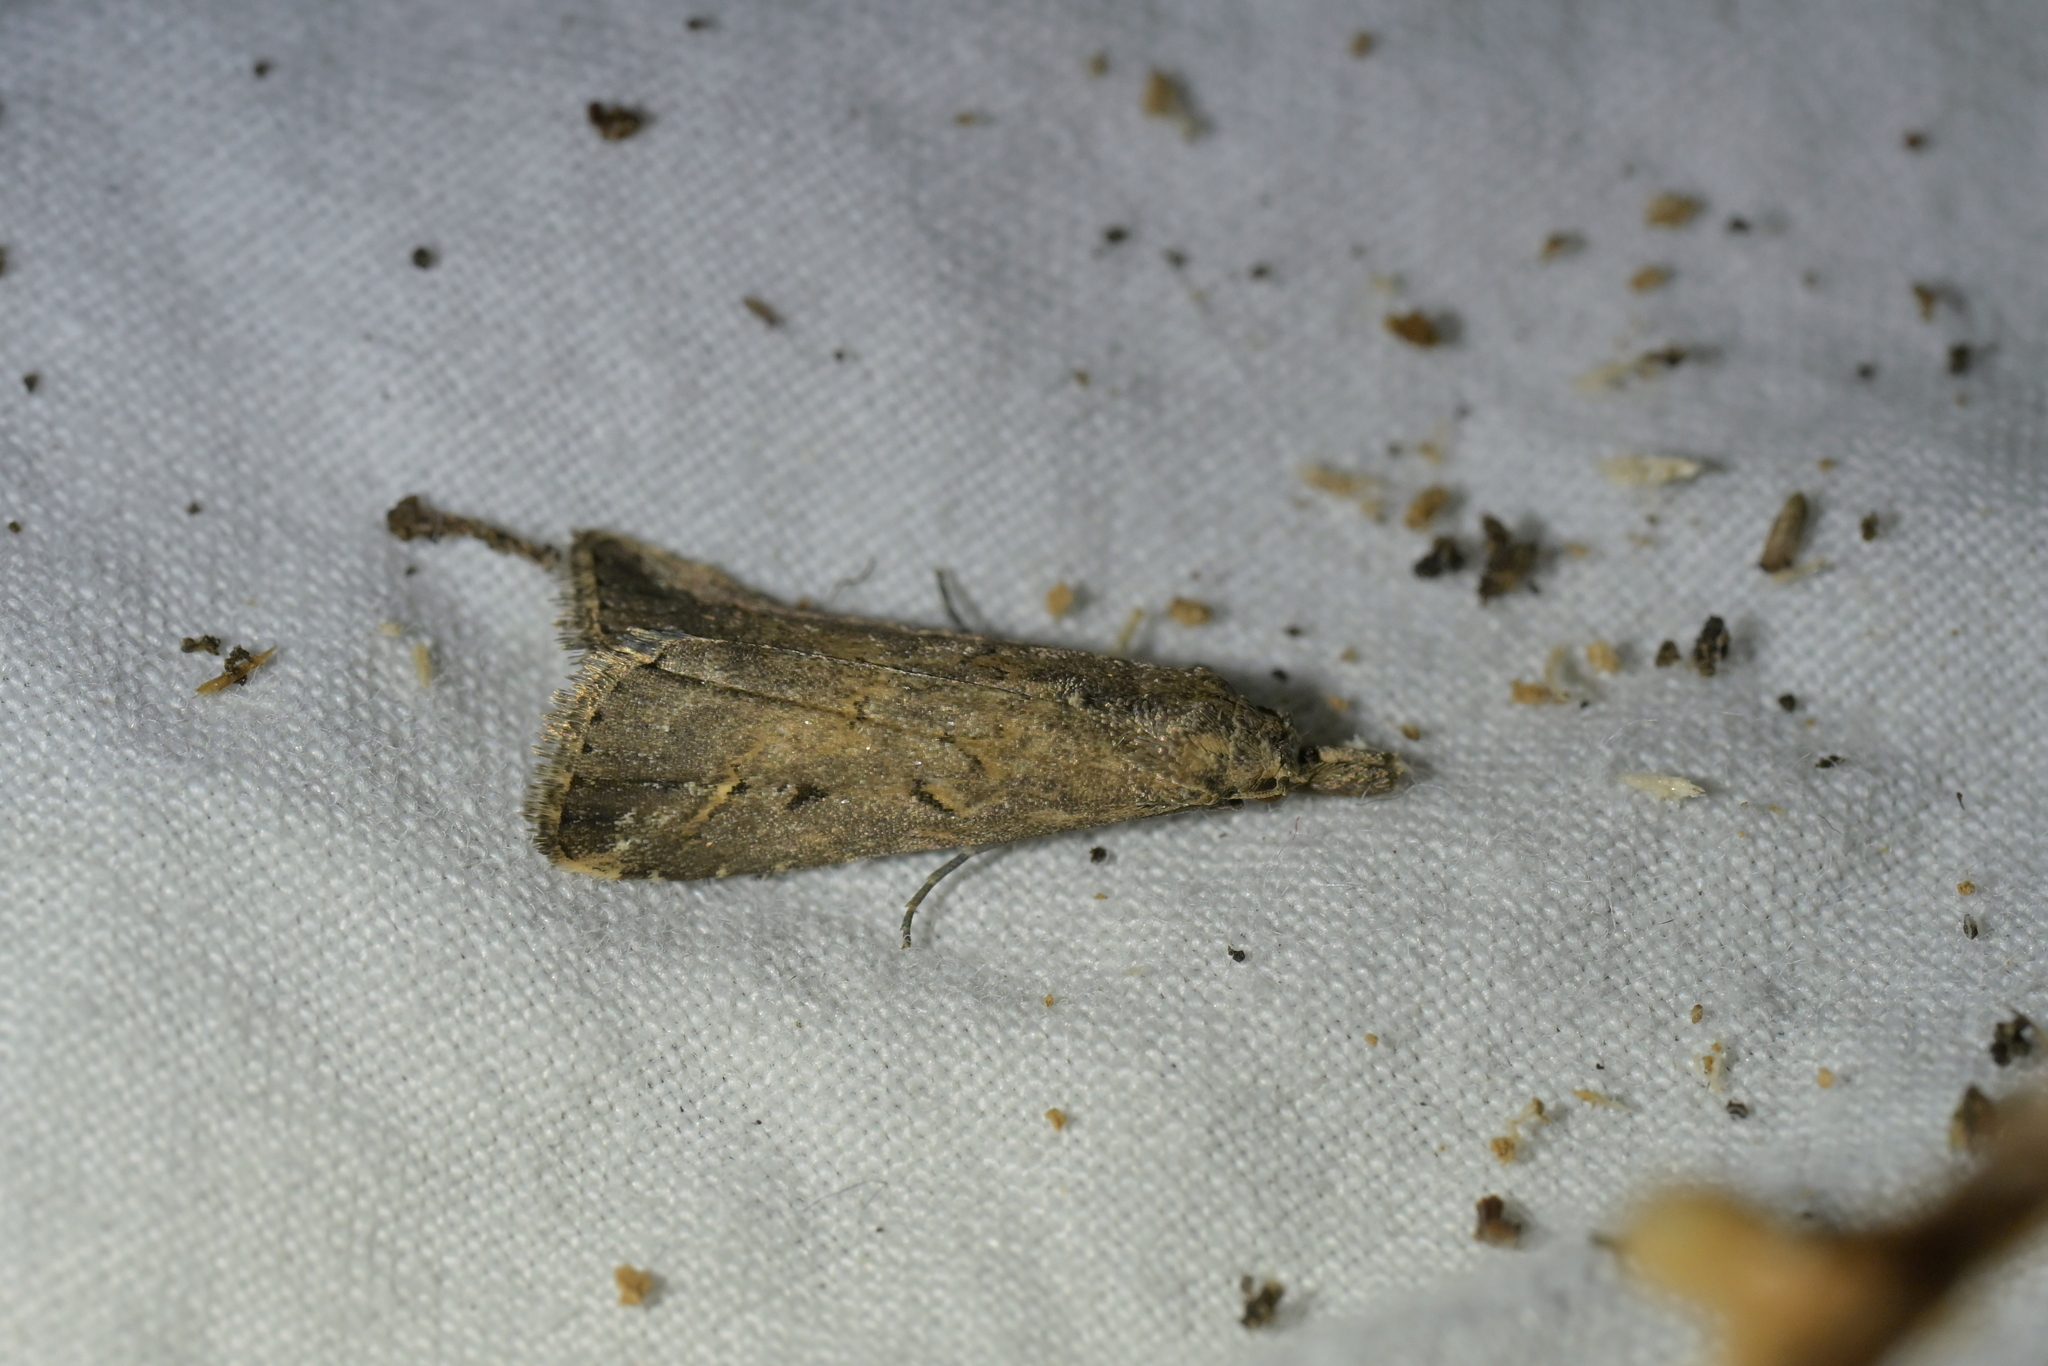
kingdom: Animalia
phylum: Arthropoda
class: Insecta
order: Lepidoptera
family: Erebidae
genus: Schrankia
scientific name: Schrankia costaestrigalis
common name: Pinion-streaked snout
